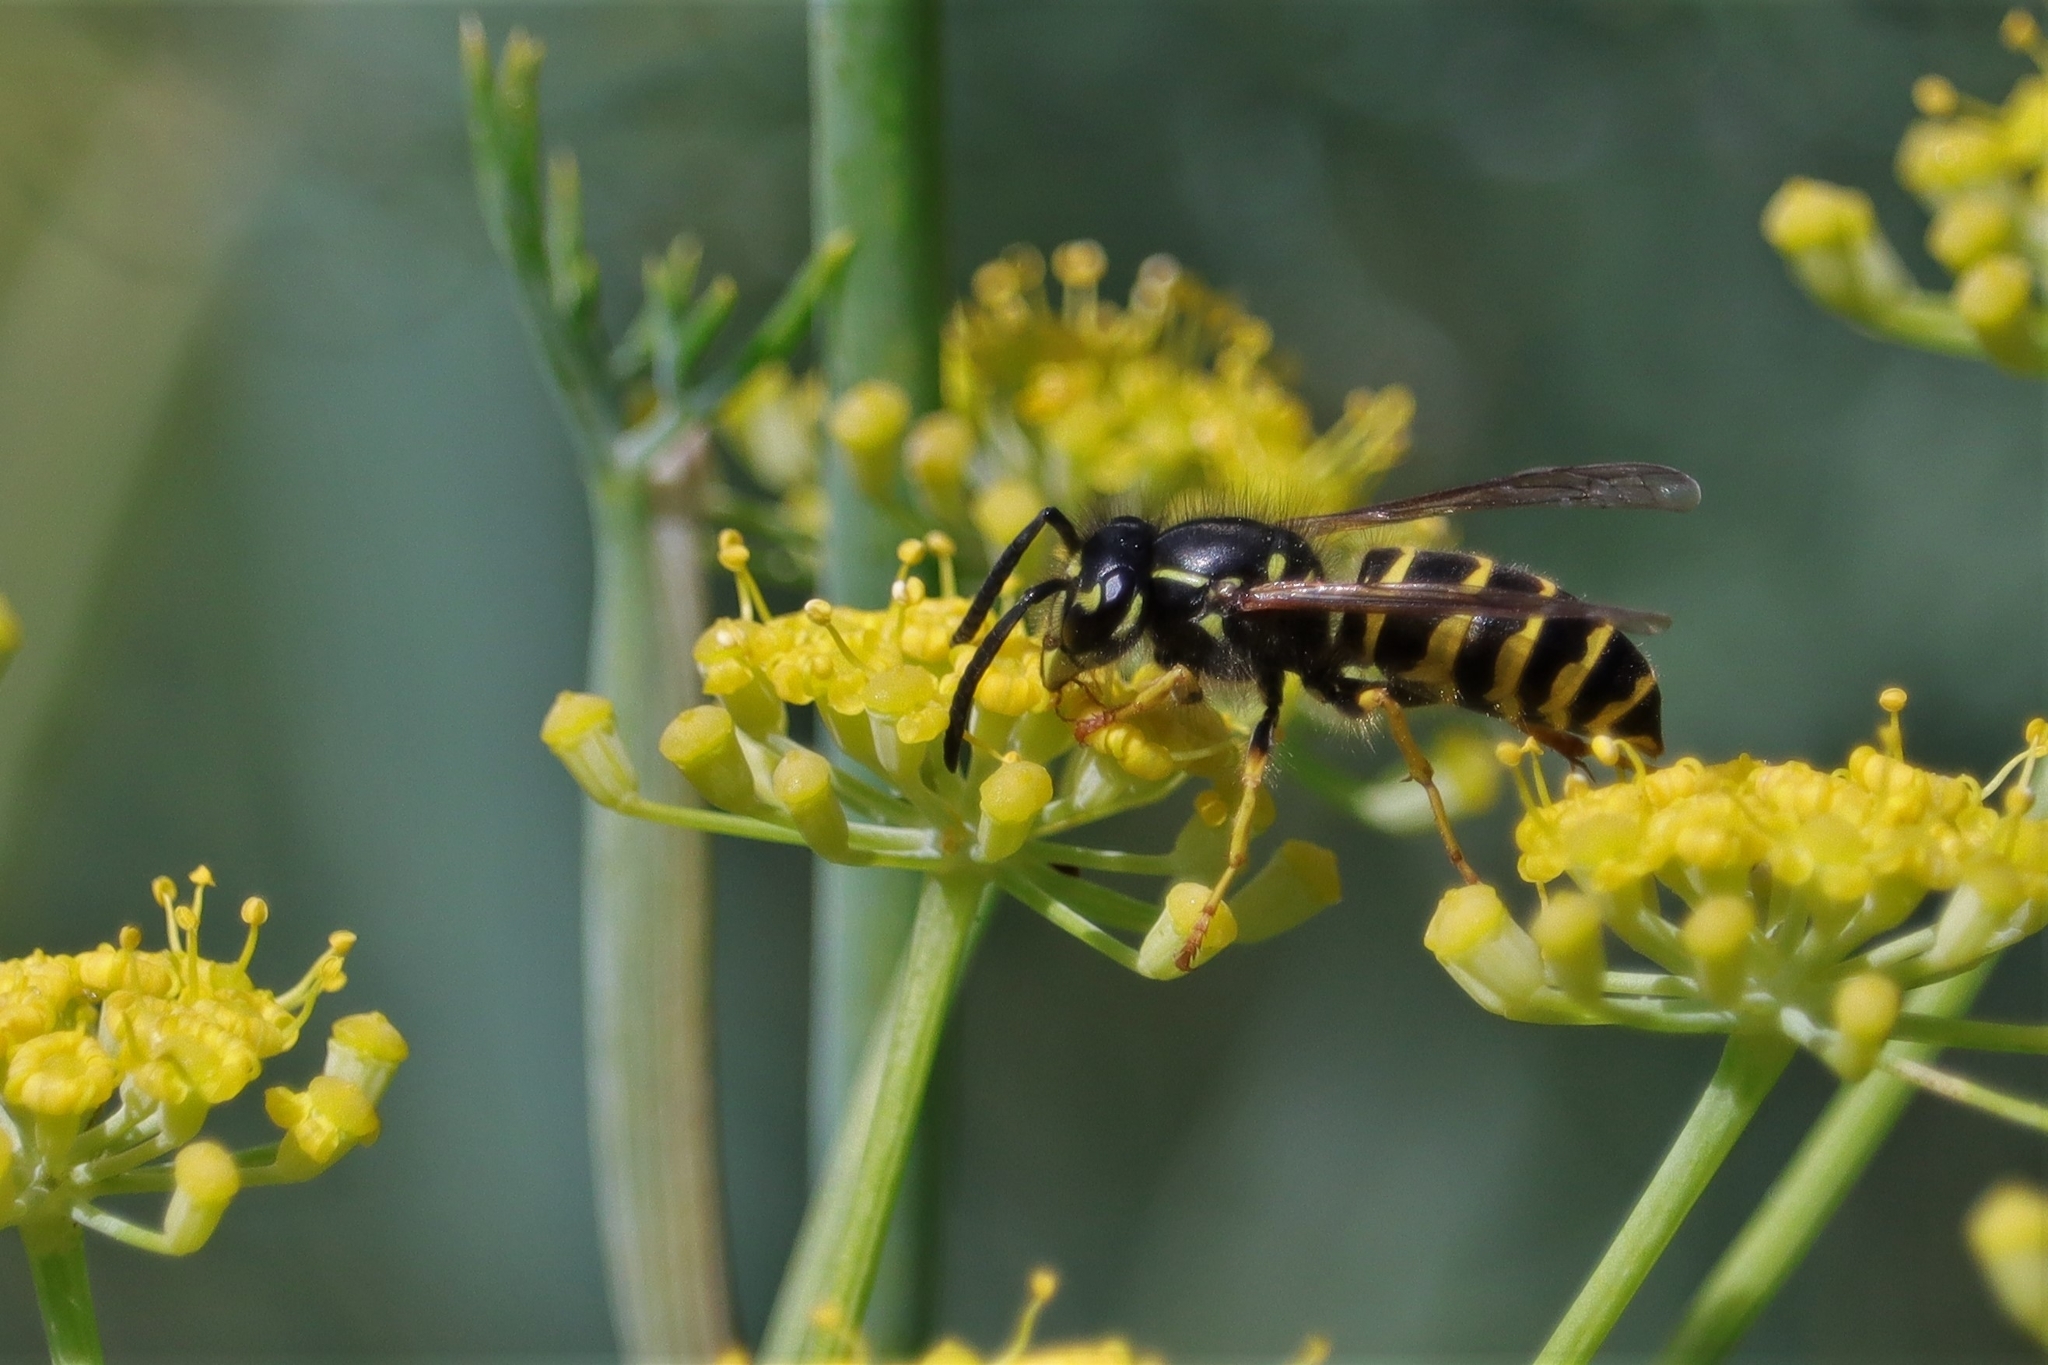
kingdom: Animalia
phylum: Arthropoda
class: Insecta
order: Hymenoptera
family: Vespidae
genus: Vespula
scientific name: Vespula alascensis
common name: Alaska yellowjacket
